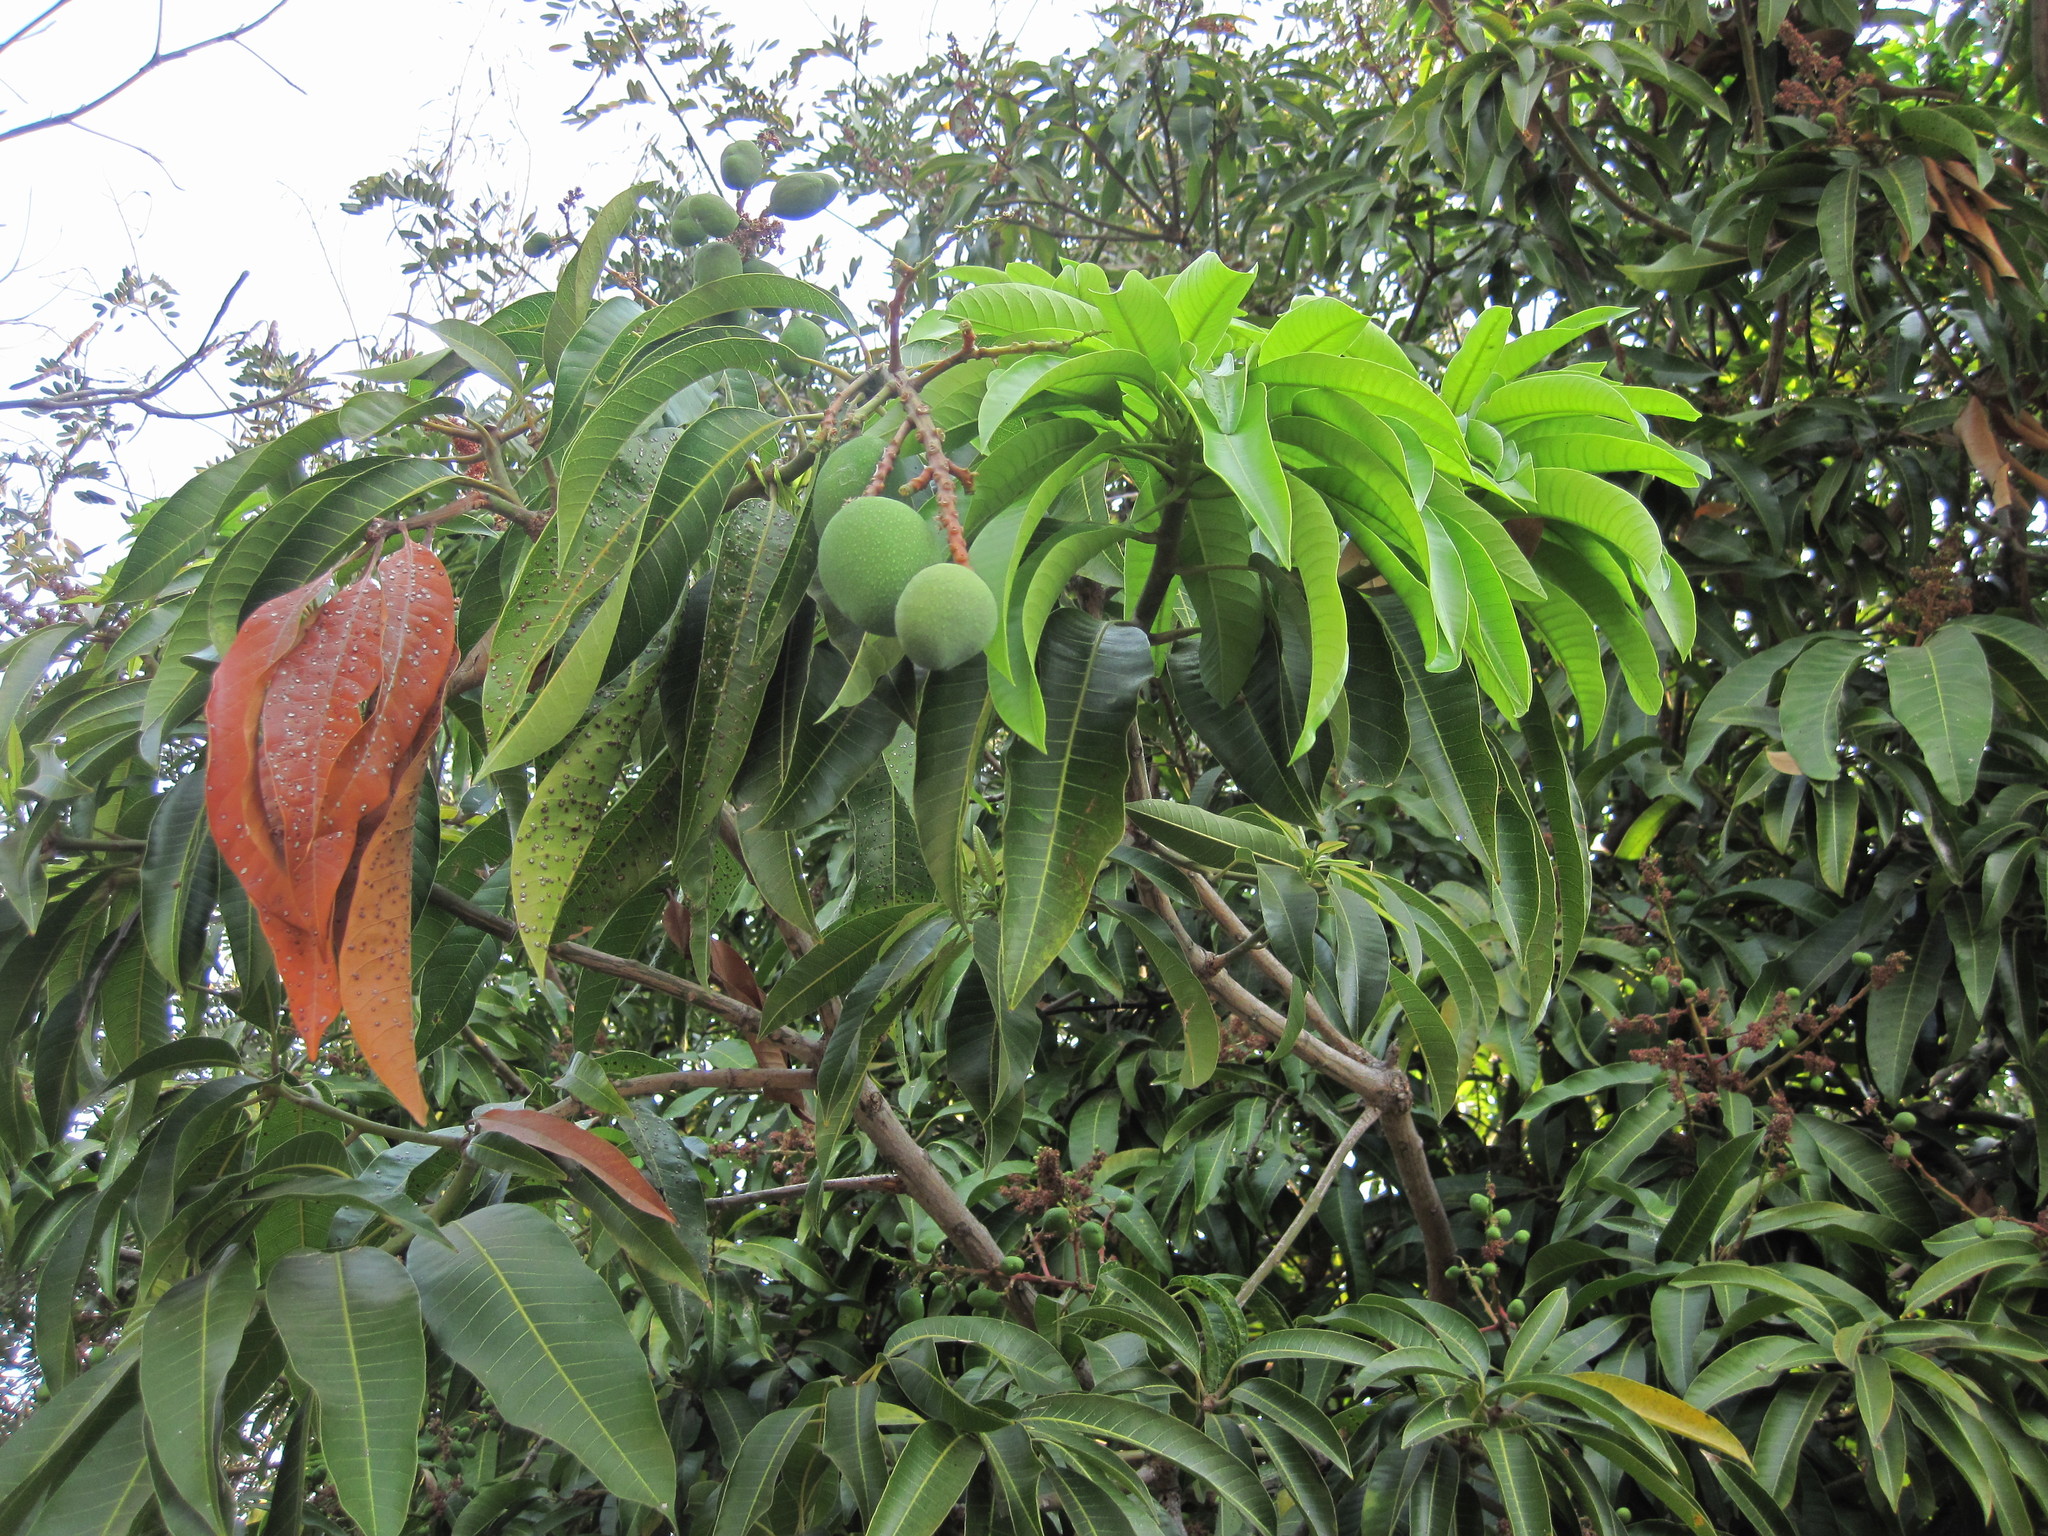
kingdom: Plantae
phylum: Tracheophyta
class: Magnoliopsida
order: Sapindales
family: Anacardiaceae
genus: Mangifera
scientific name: Mangifera indica
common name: Mango
